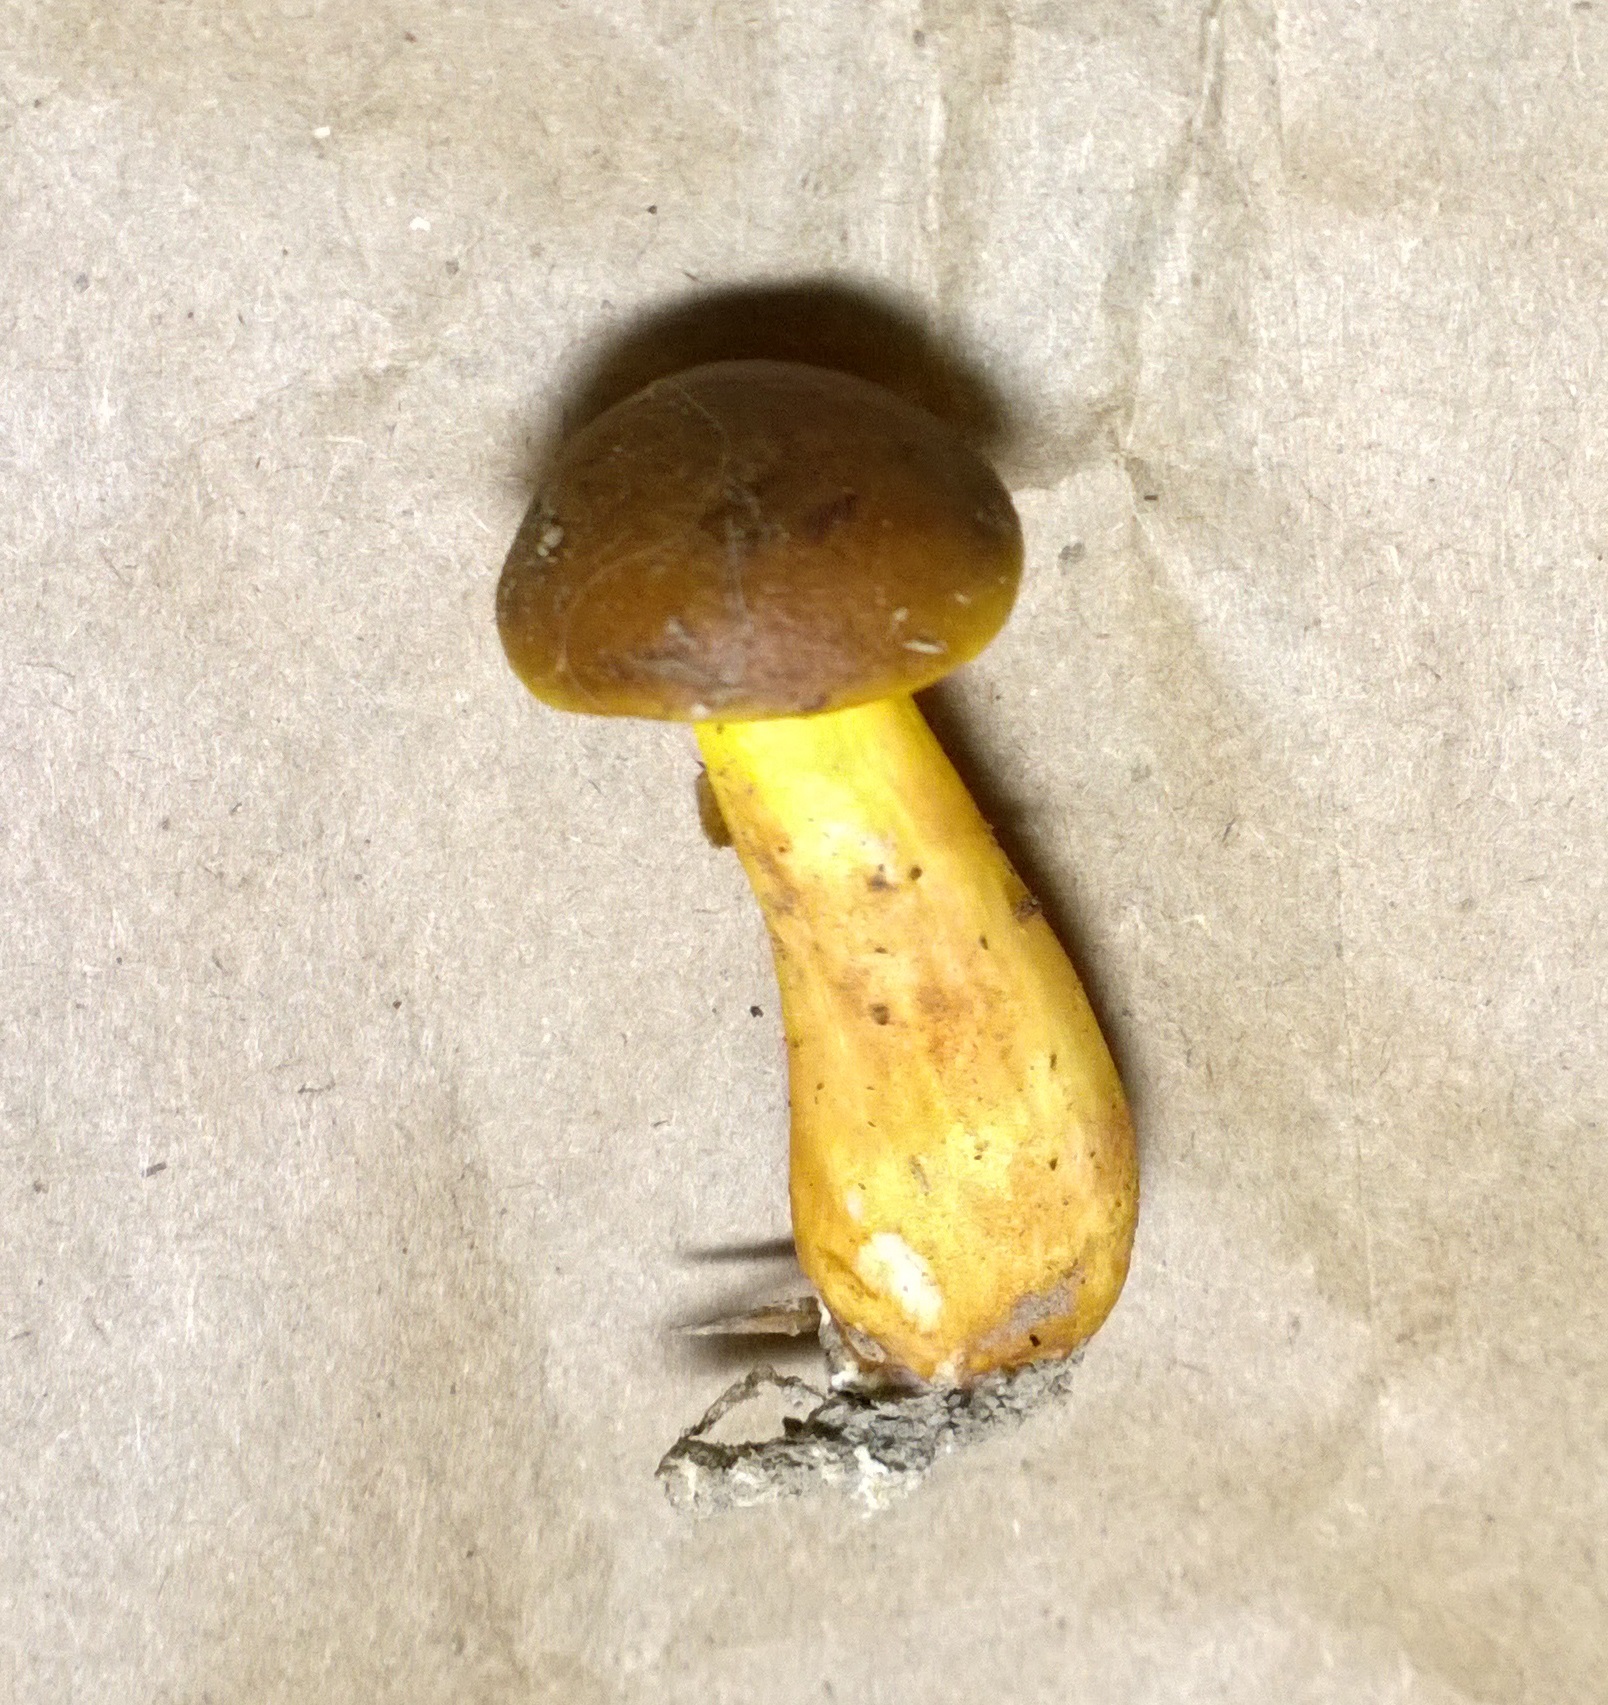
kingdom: Fungi
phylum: Basidiomycota
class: Agaricomycetes
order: Boletales
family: Boletaceae
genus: Aureoboletus
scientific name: Aureoboletus auriporus
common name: Sour gold-pored bolete
